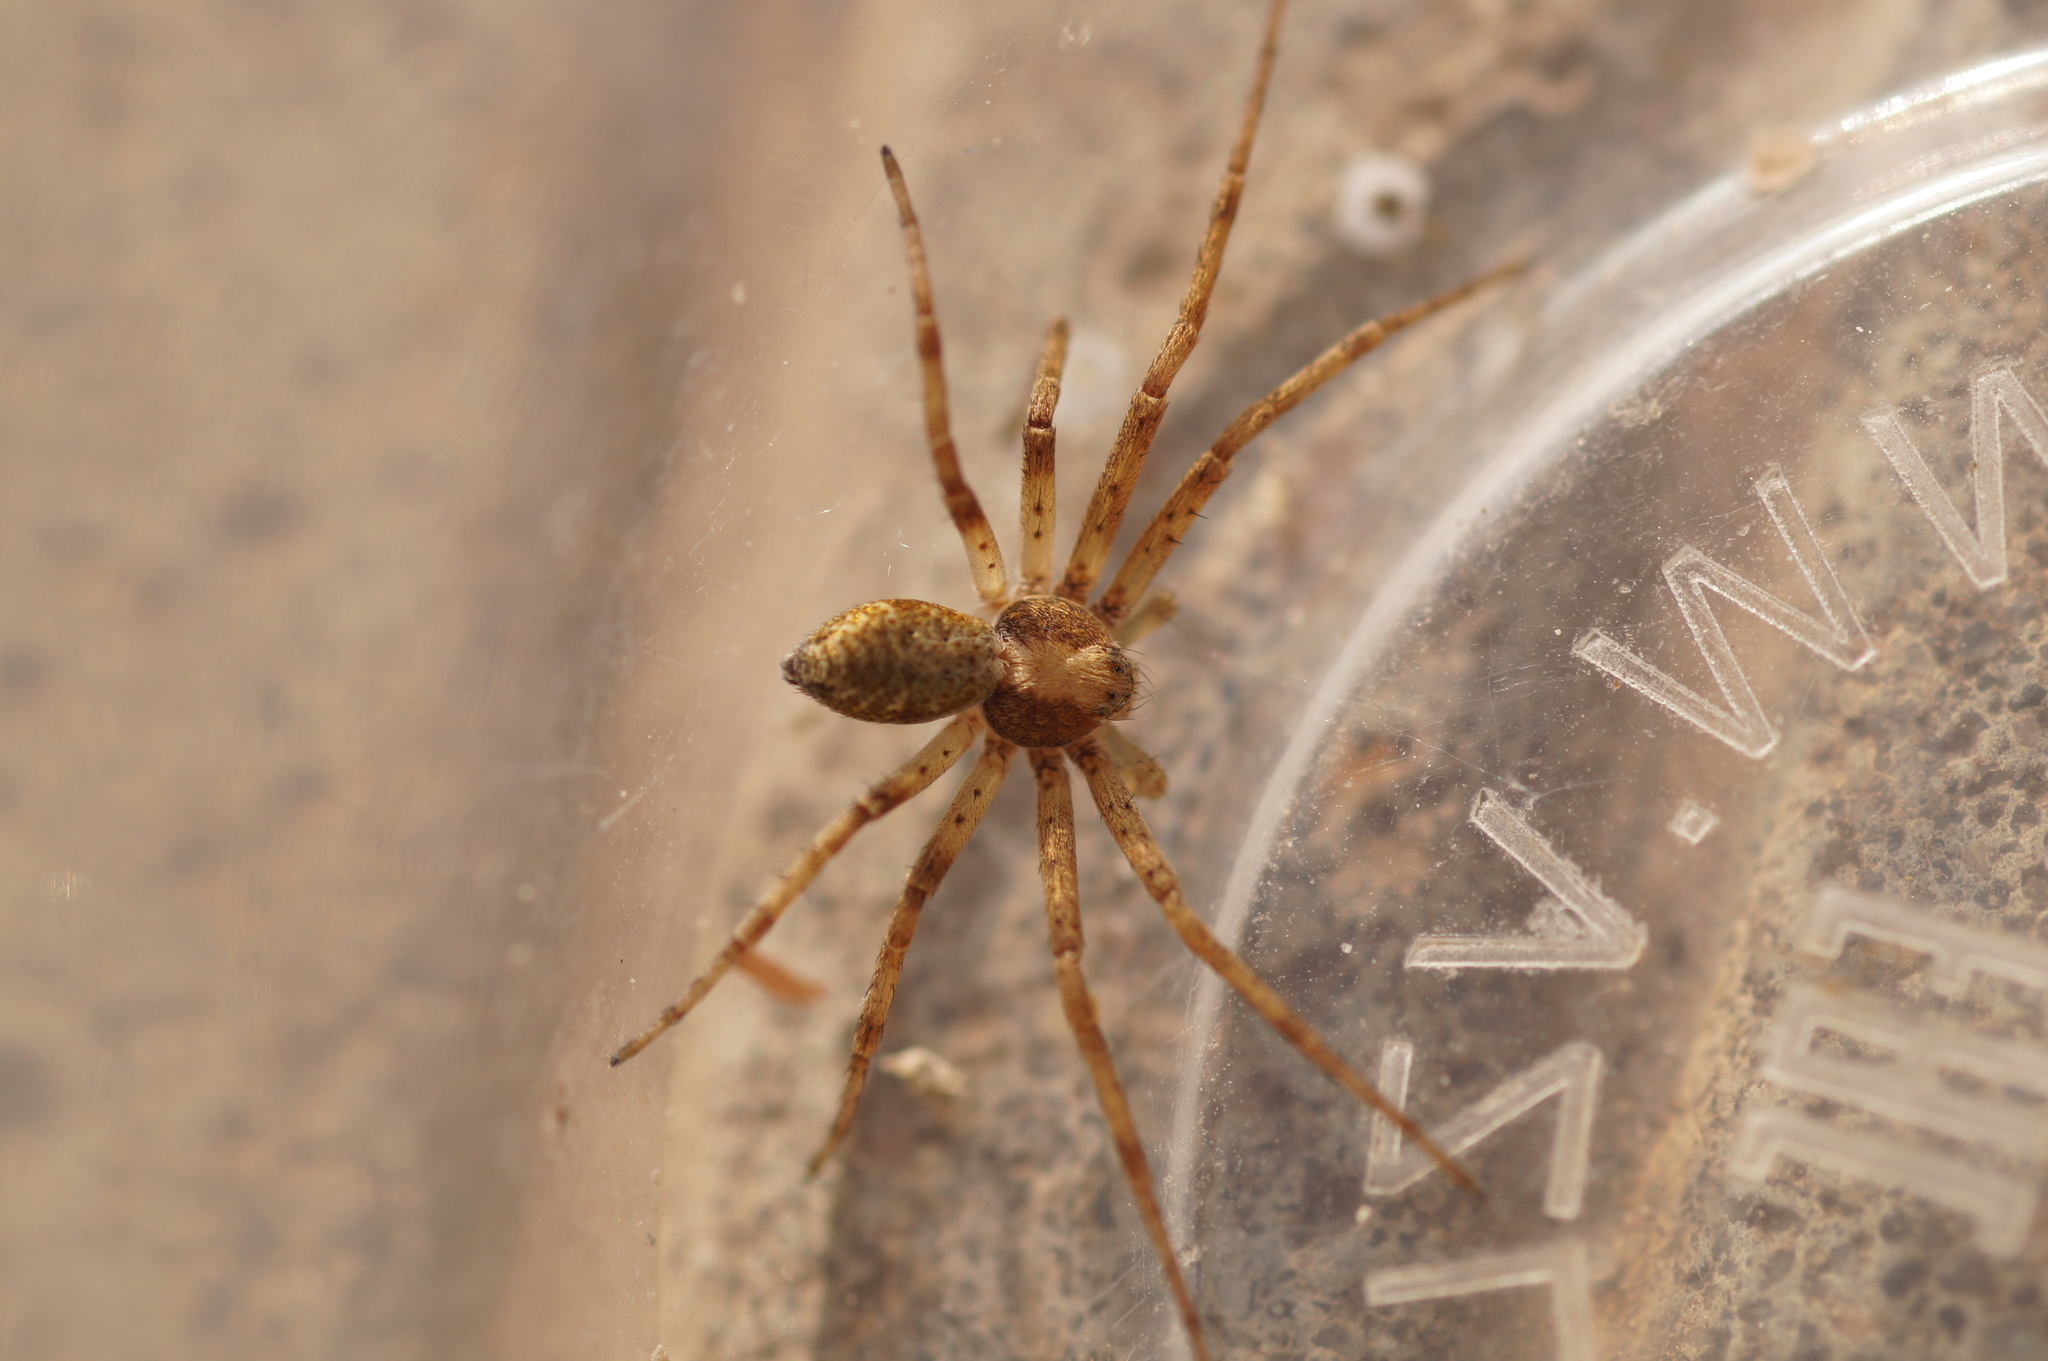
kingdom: Animalia
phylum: Arthropoda
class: Arachnida
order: Araneae
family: Philodromidae
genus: Philodromus
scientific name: Philodromus
